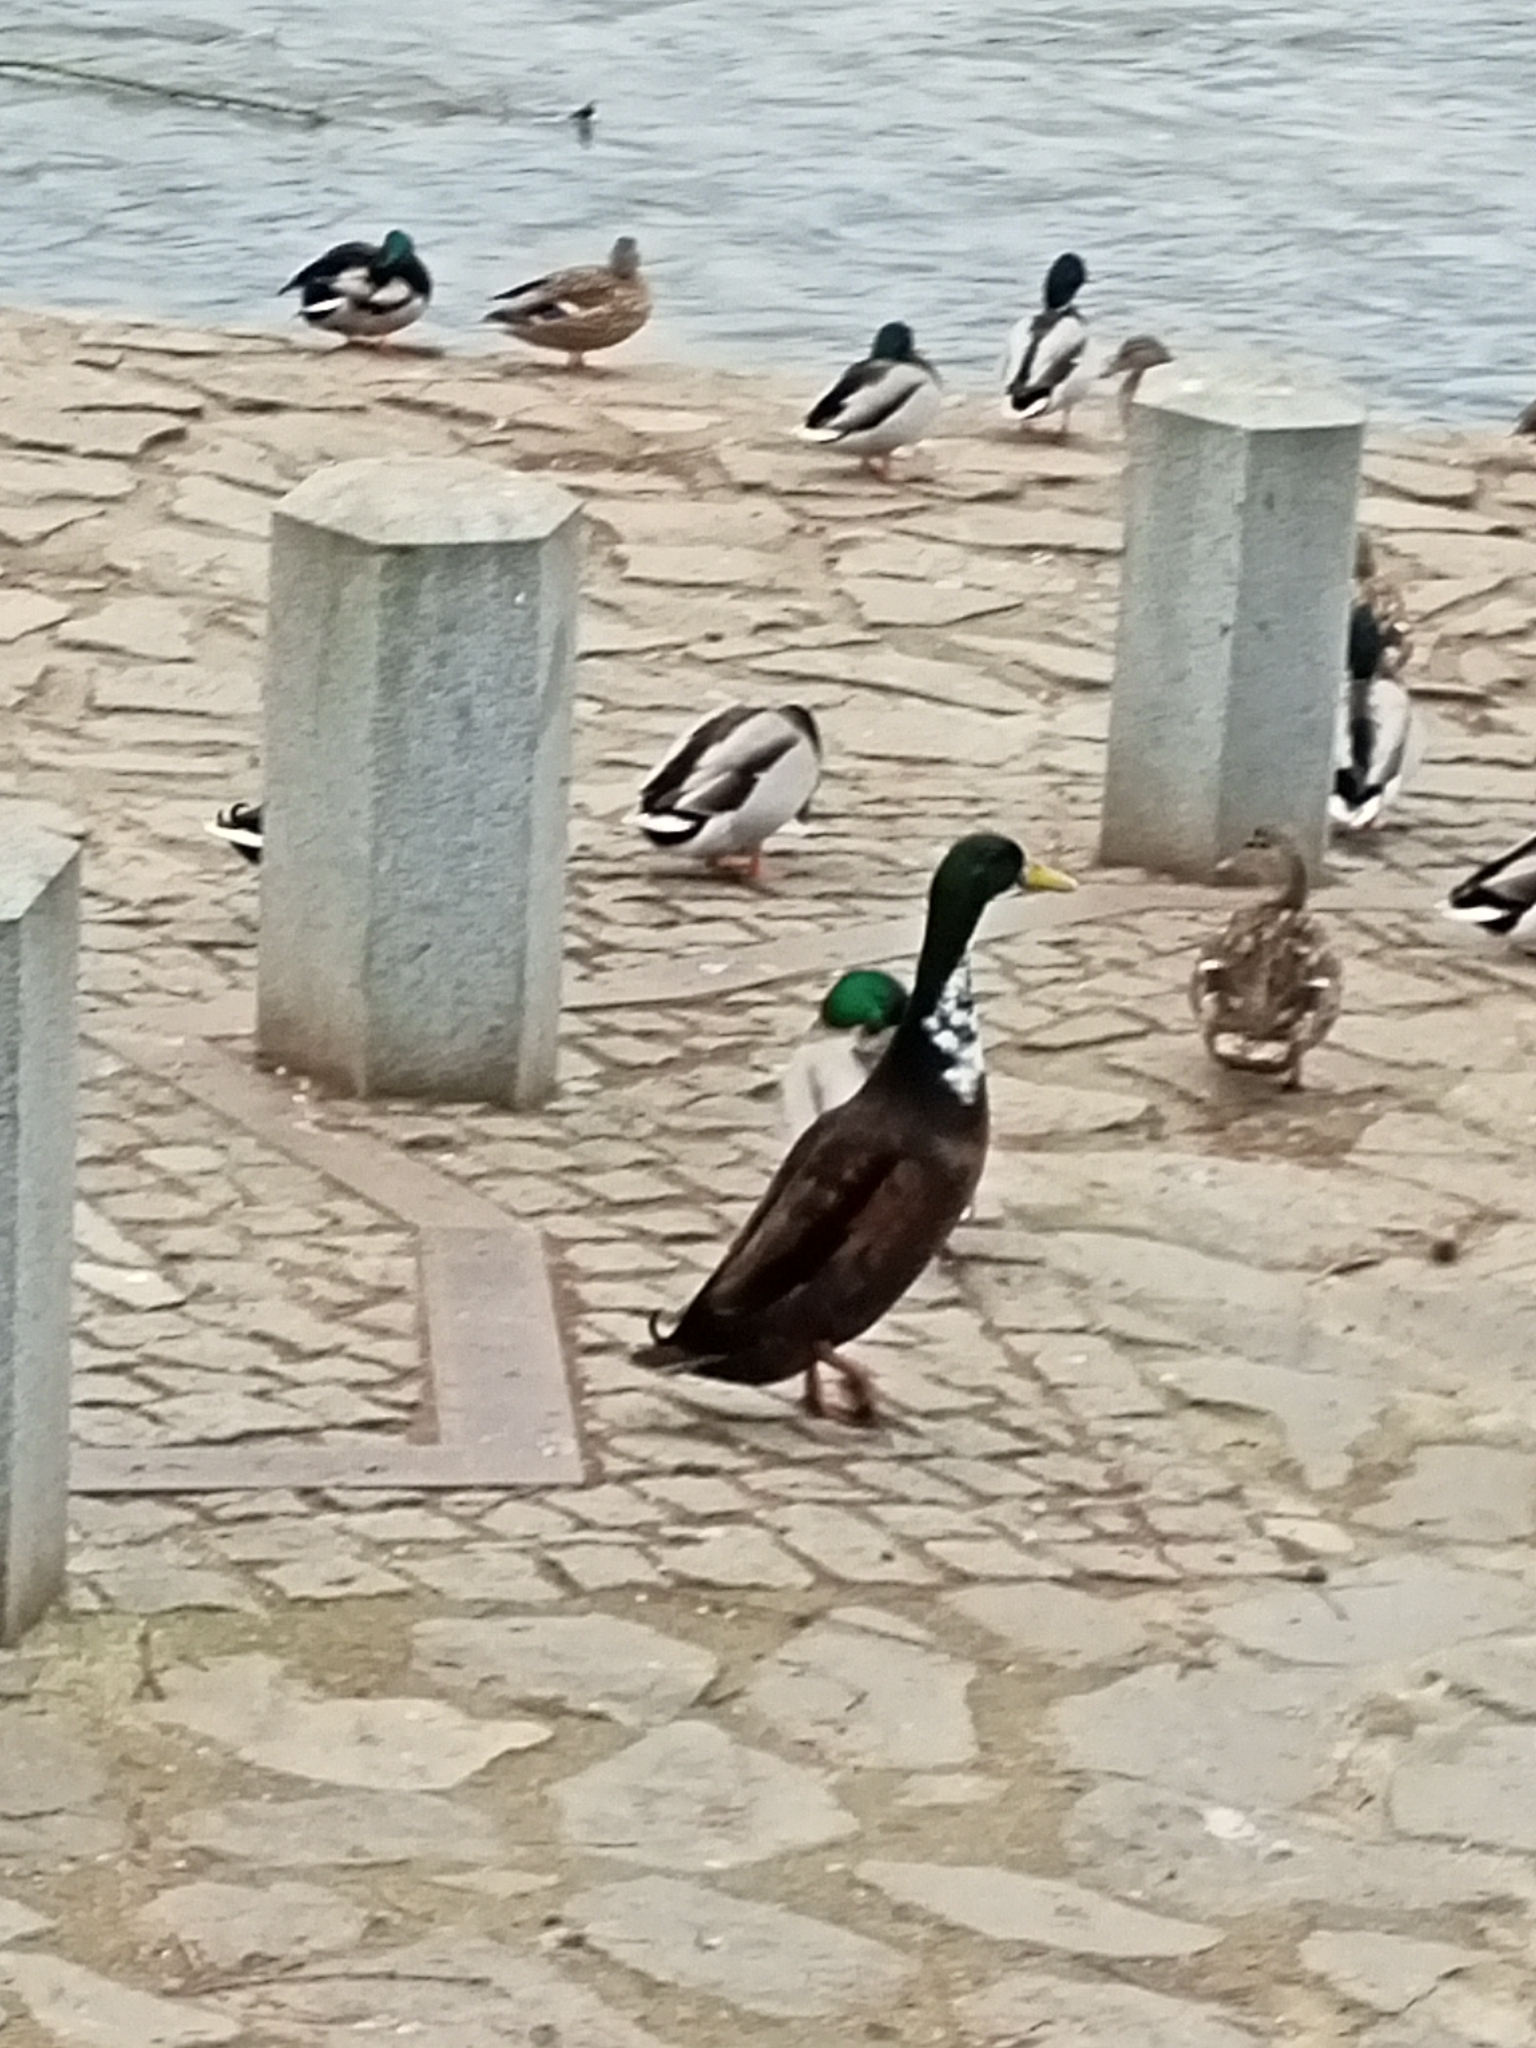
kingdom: Animalia
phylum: Chordata
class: Aves
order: Anseriformes
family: Anatidae
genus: Anas
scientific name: Anas platyrhynchos
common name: Mallard
